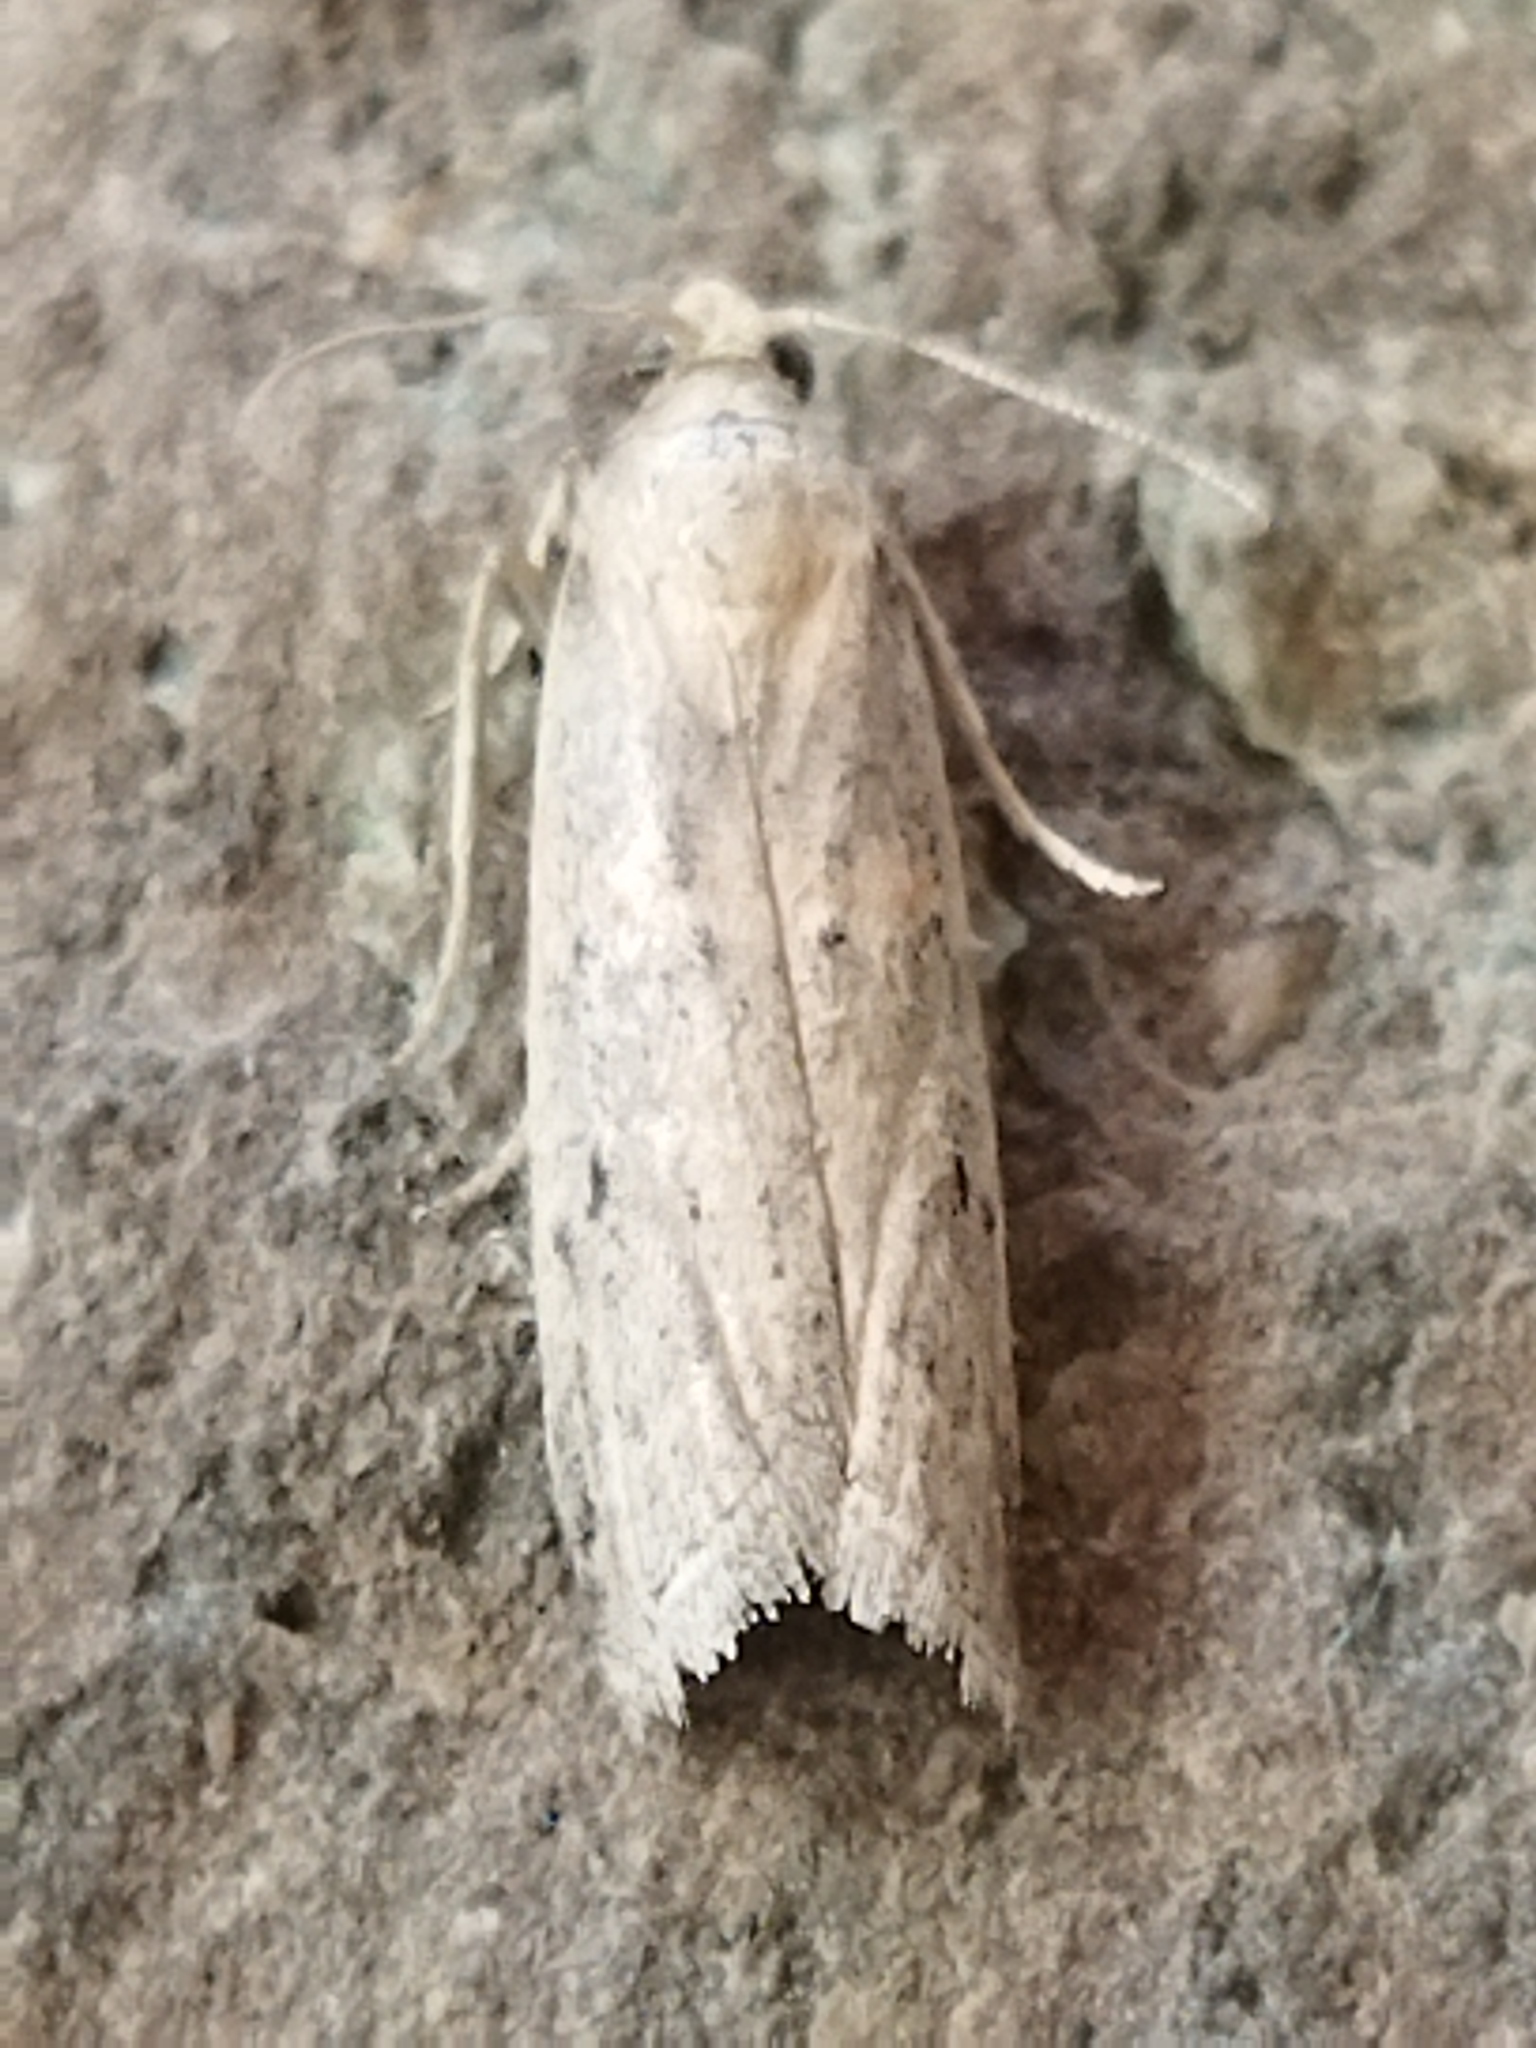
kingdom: Animalia
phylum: Arthropoda
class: Insecta
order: Lepidoptera
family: Pyralidae
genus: Gymnancyla
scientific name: Gymnancyla hornigii
